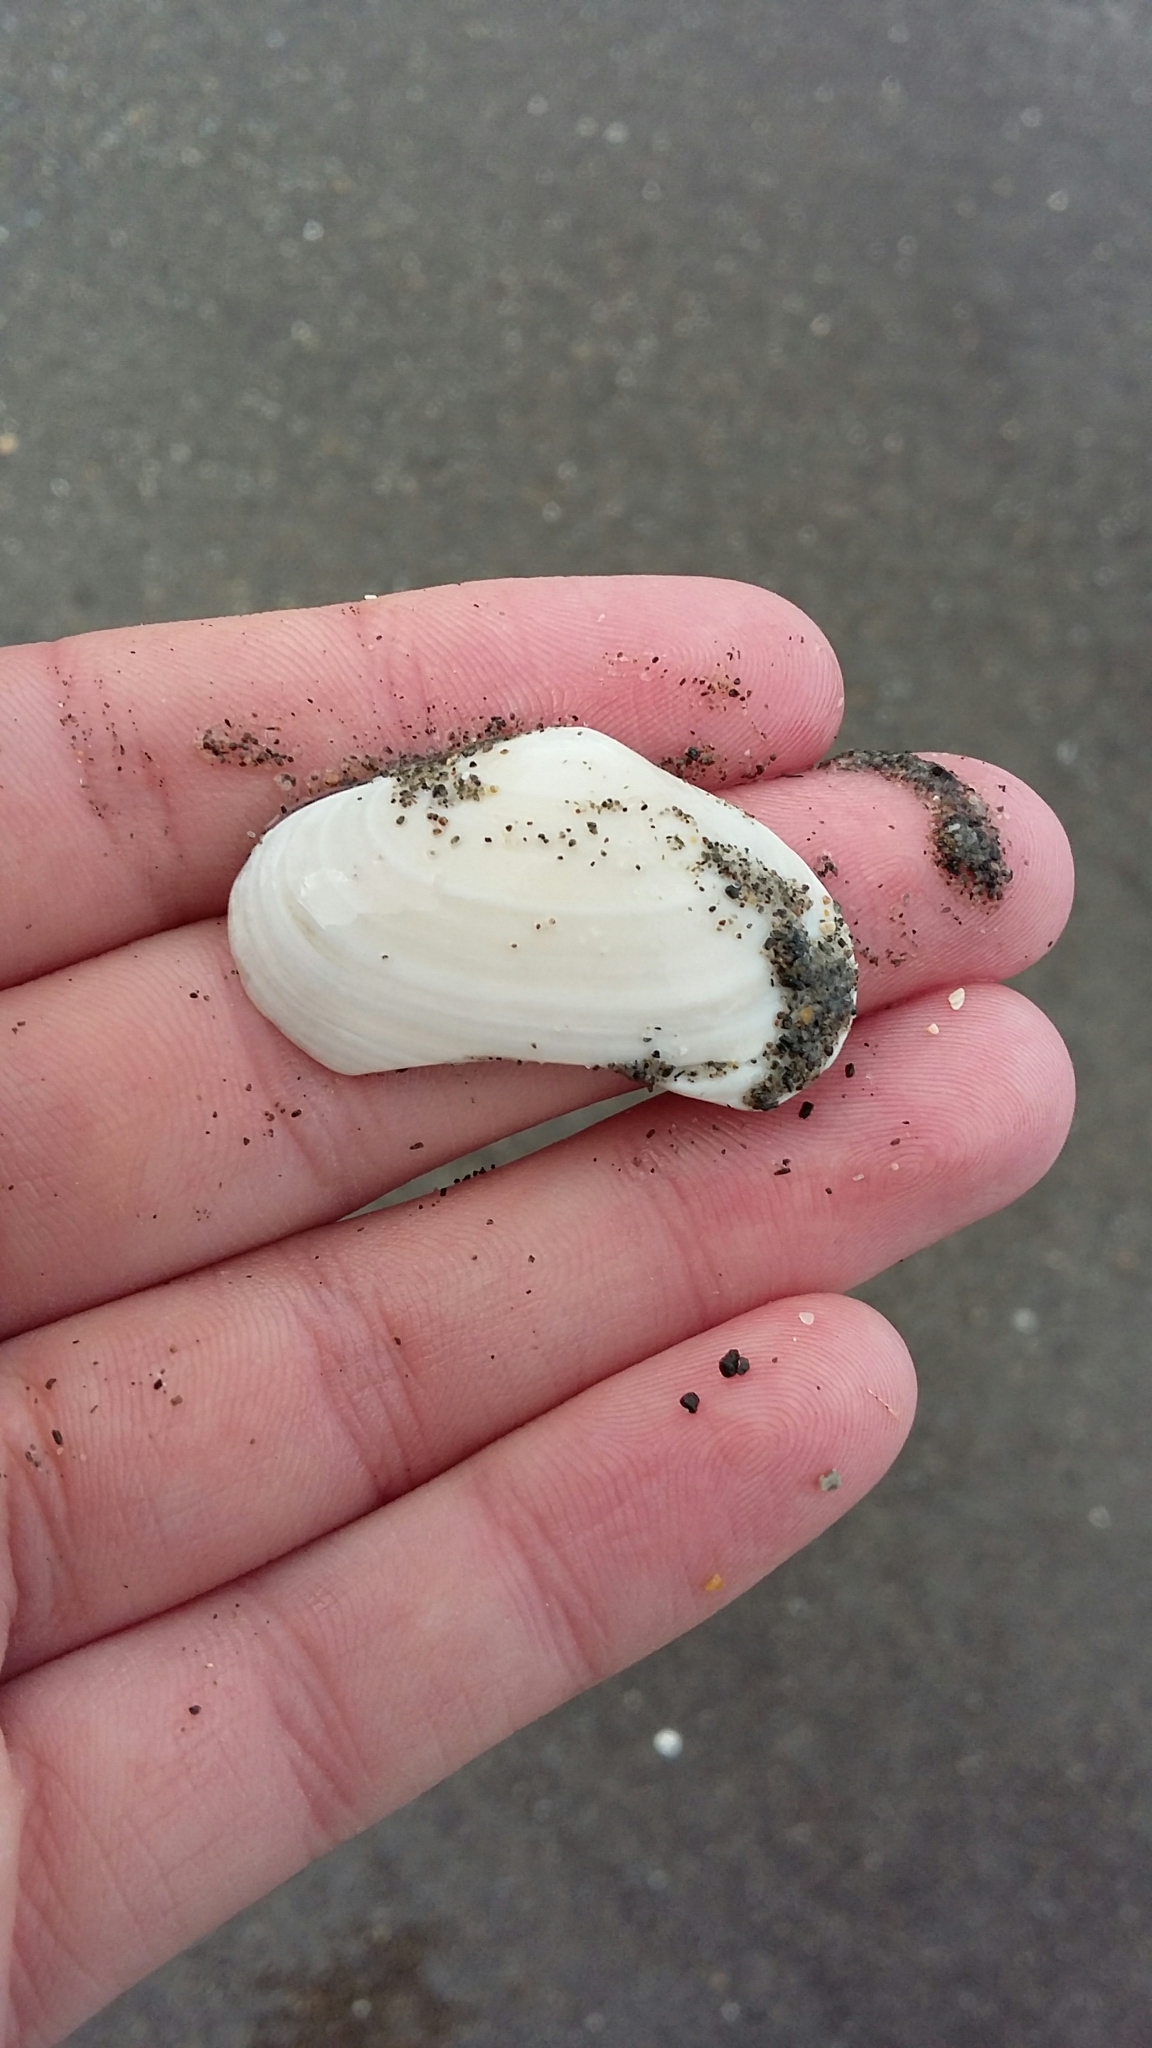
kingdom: Animalia
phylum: Mollusca
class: Bivalvia
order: Venerida
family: Mesodesmatidae
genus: Paphies
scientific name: Paphies australis
